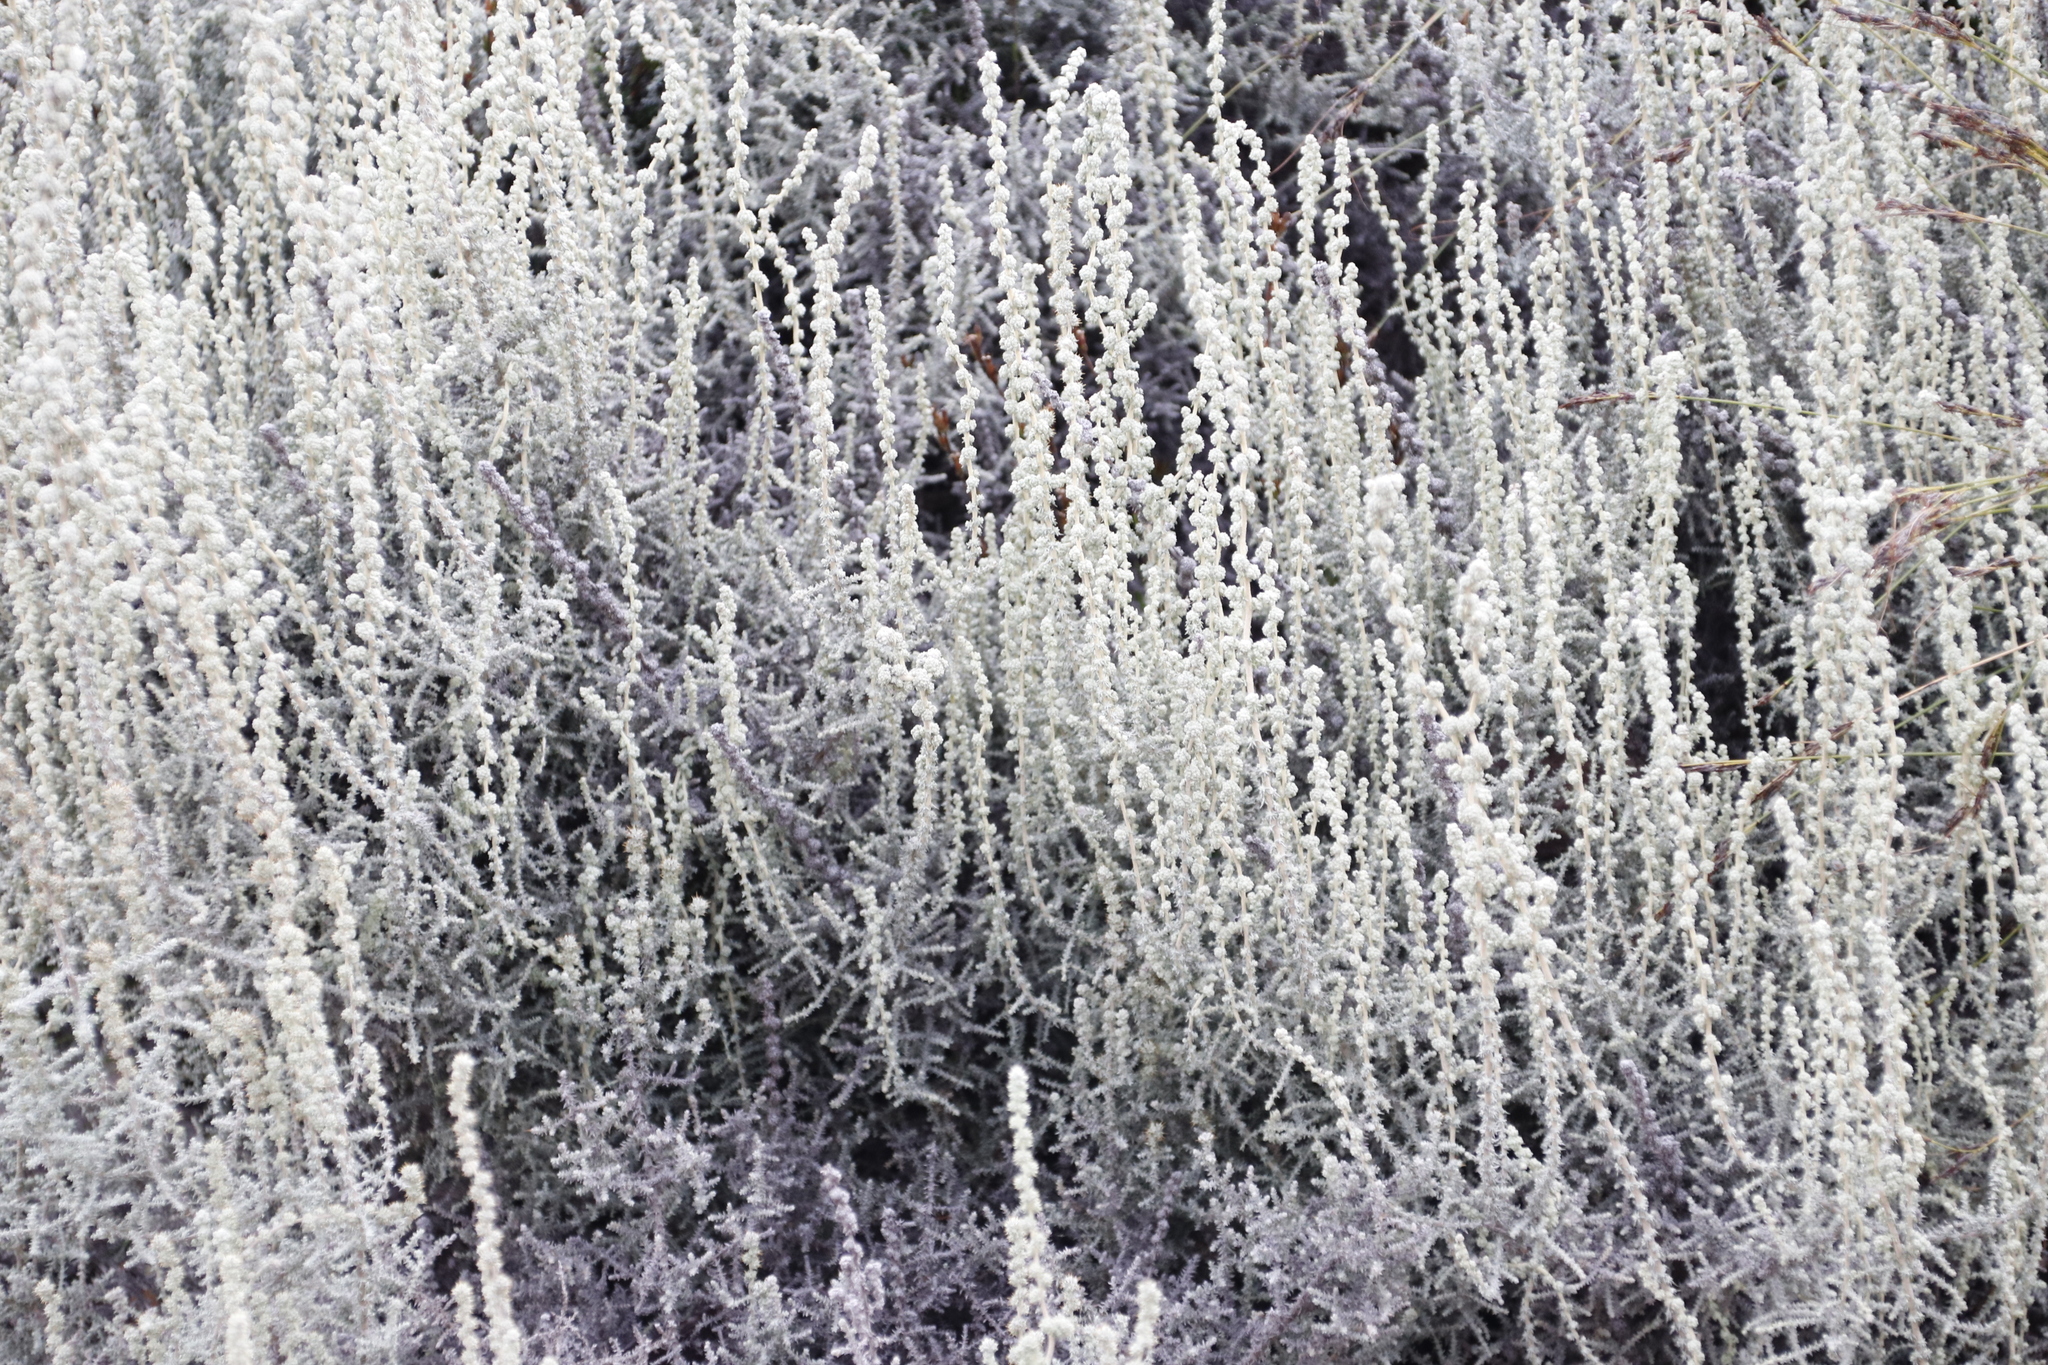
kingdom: Plantae
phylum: Tracheophyta
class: Magnoliopsida
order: Asterales
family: Asteraceae
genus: Seriphium
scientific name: Seriphium plumosum
